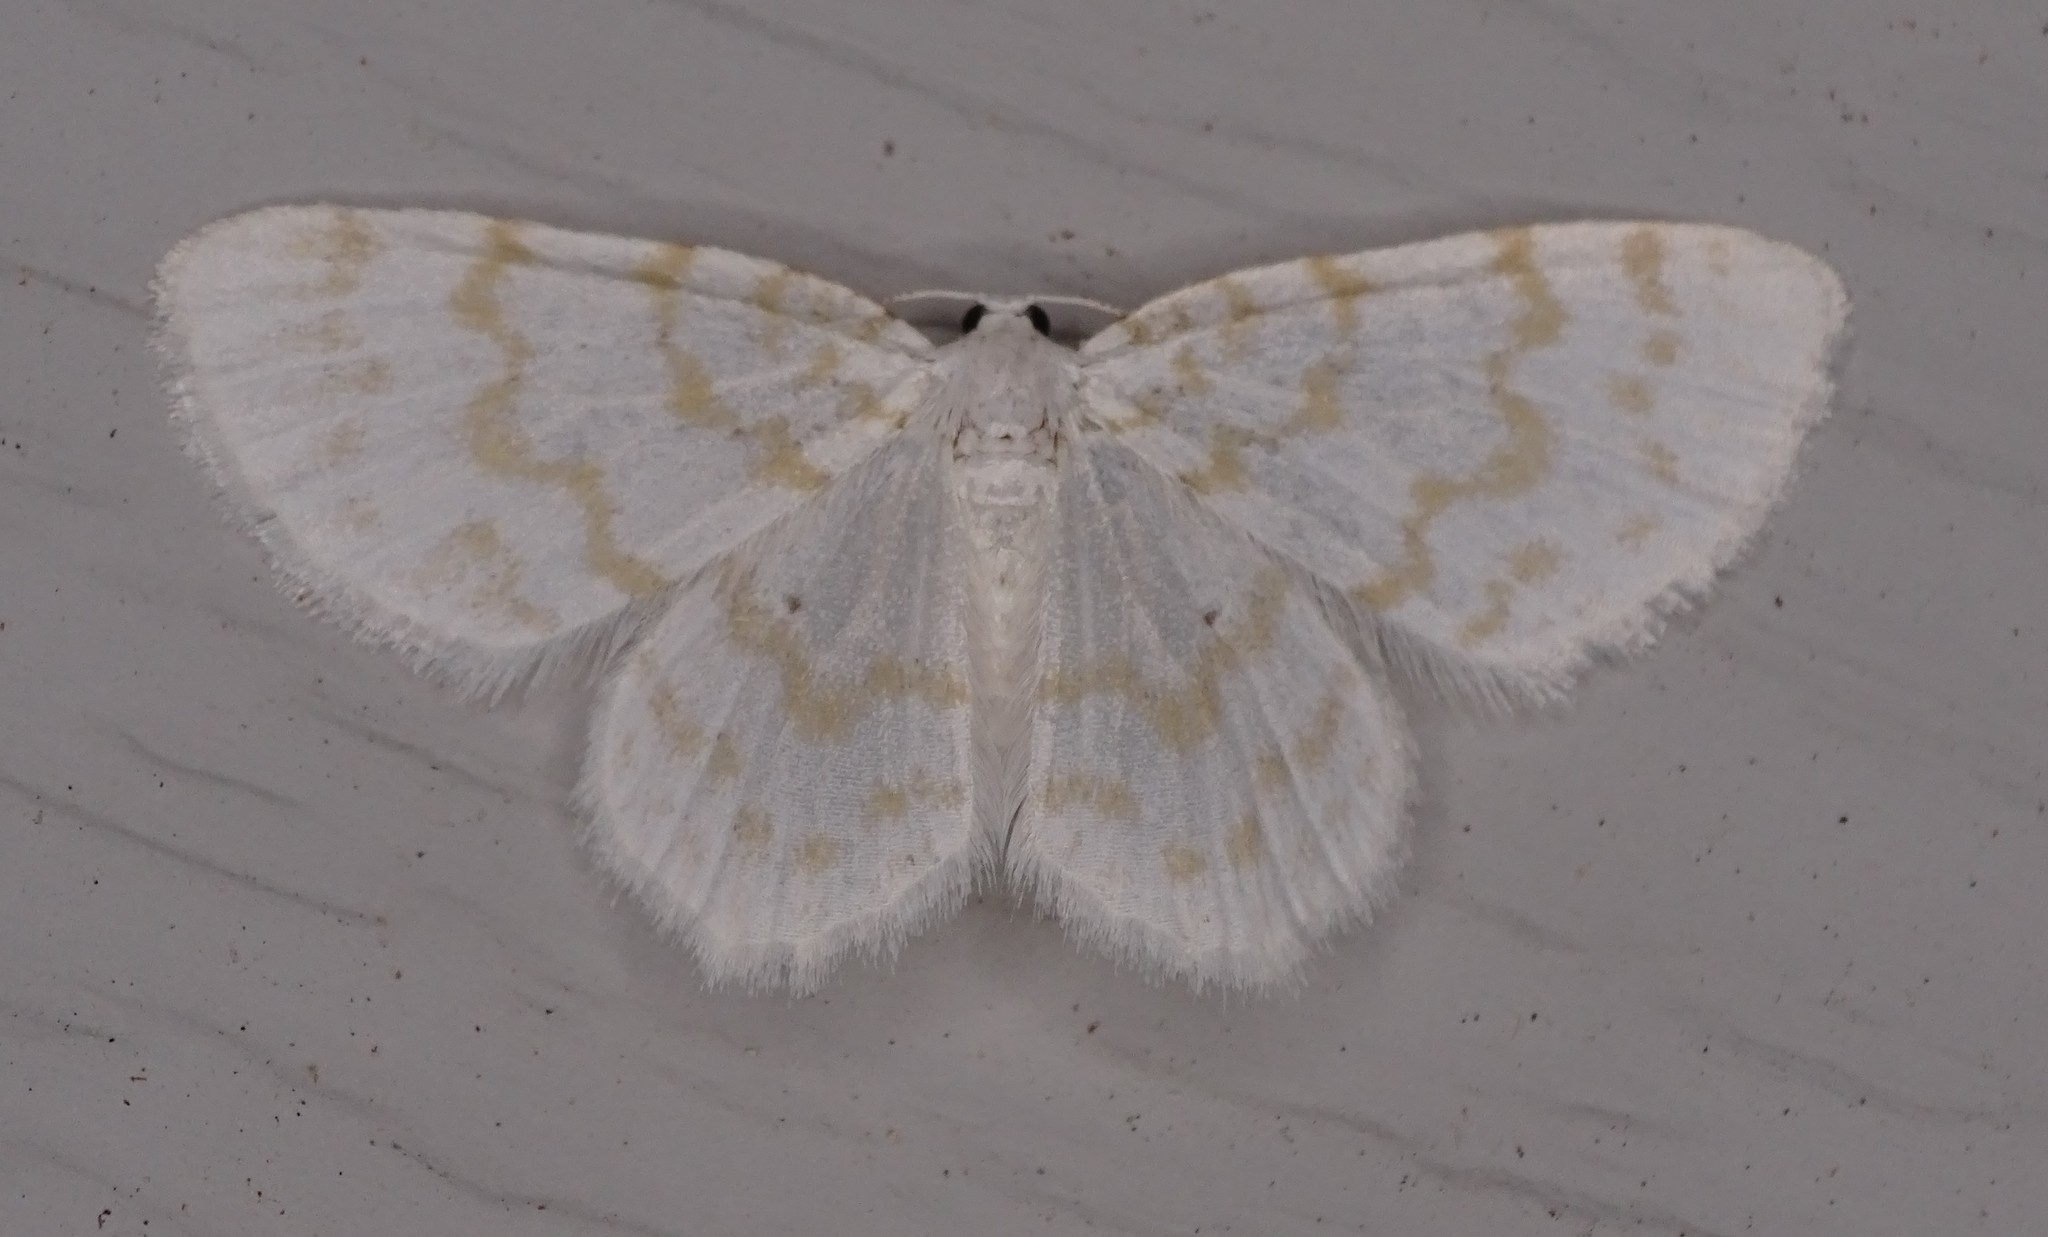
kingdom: Animalia
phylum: Arthropoda
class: Insecta
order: Lepidoptera
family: Geometridae
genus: Hydrelia
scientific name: Hydrelia albifera
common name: Fragile white carpet
